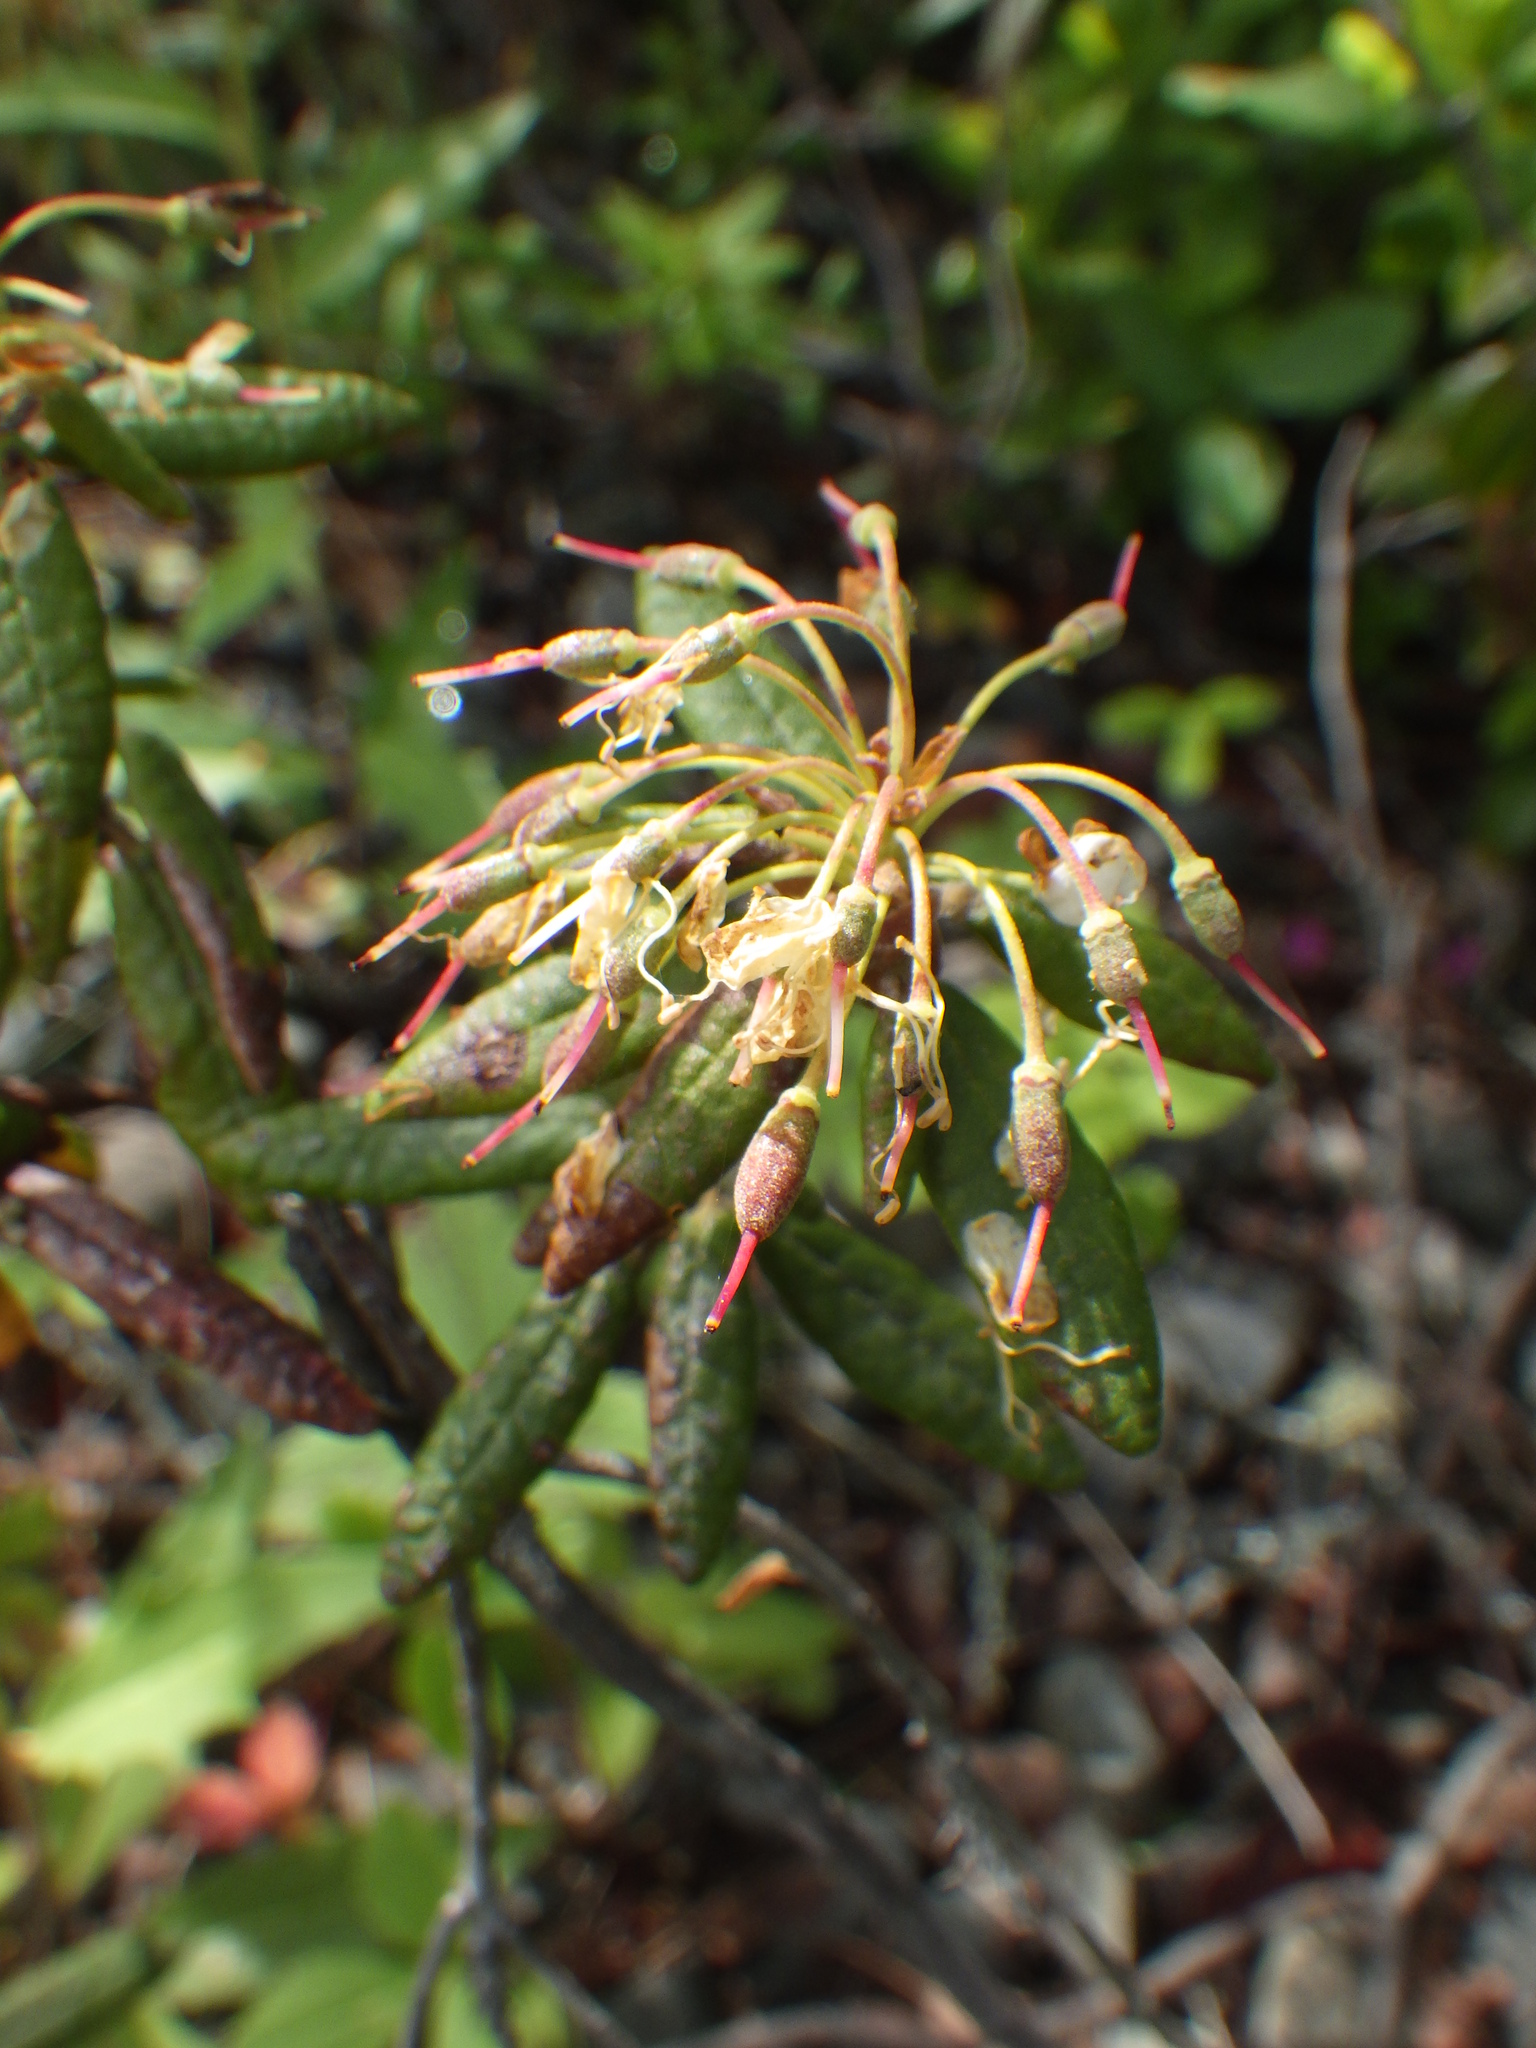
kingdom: Plantae
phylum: Tracheophyta
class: Magnoliopsida
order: Ericales
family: Ericaceae
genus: Rhododendron
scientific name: Rhododendron groenlandicum
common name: Bog labrador tea
